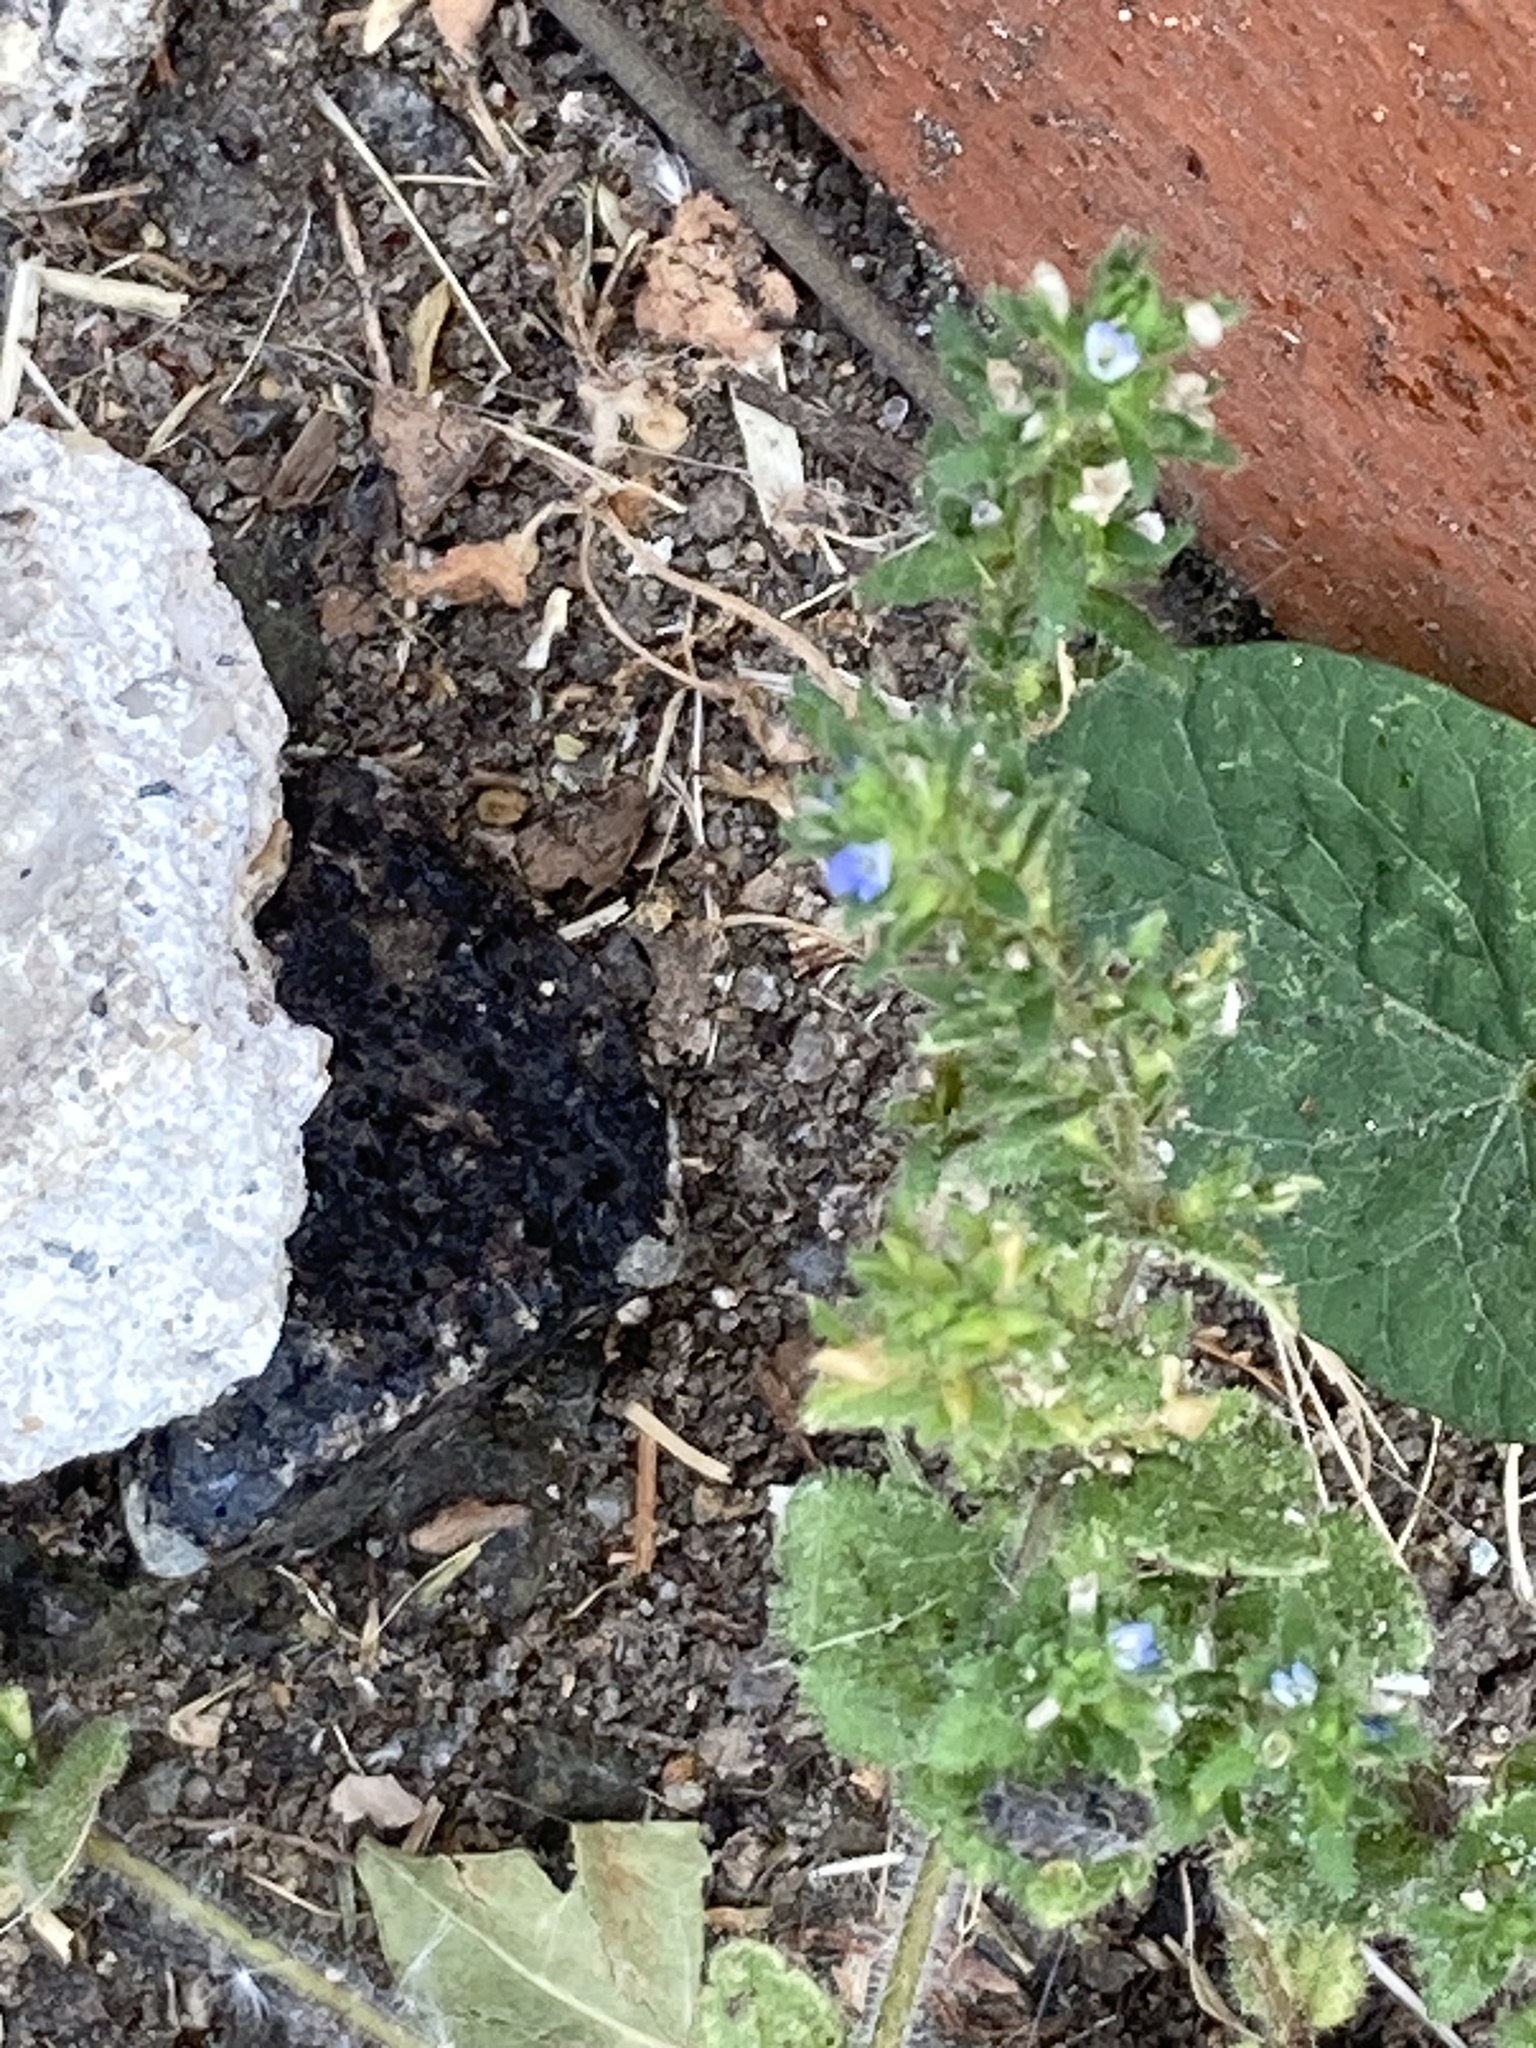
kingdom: Plantae
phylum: Tracheophyta
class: Magnoliopsida
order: Lamiales
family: Plantaginaceae
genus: Veronica
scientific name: Veronica arvensis
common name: Corn speedwell
